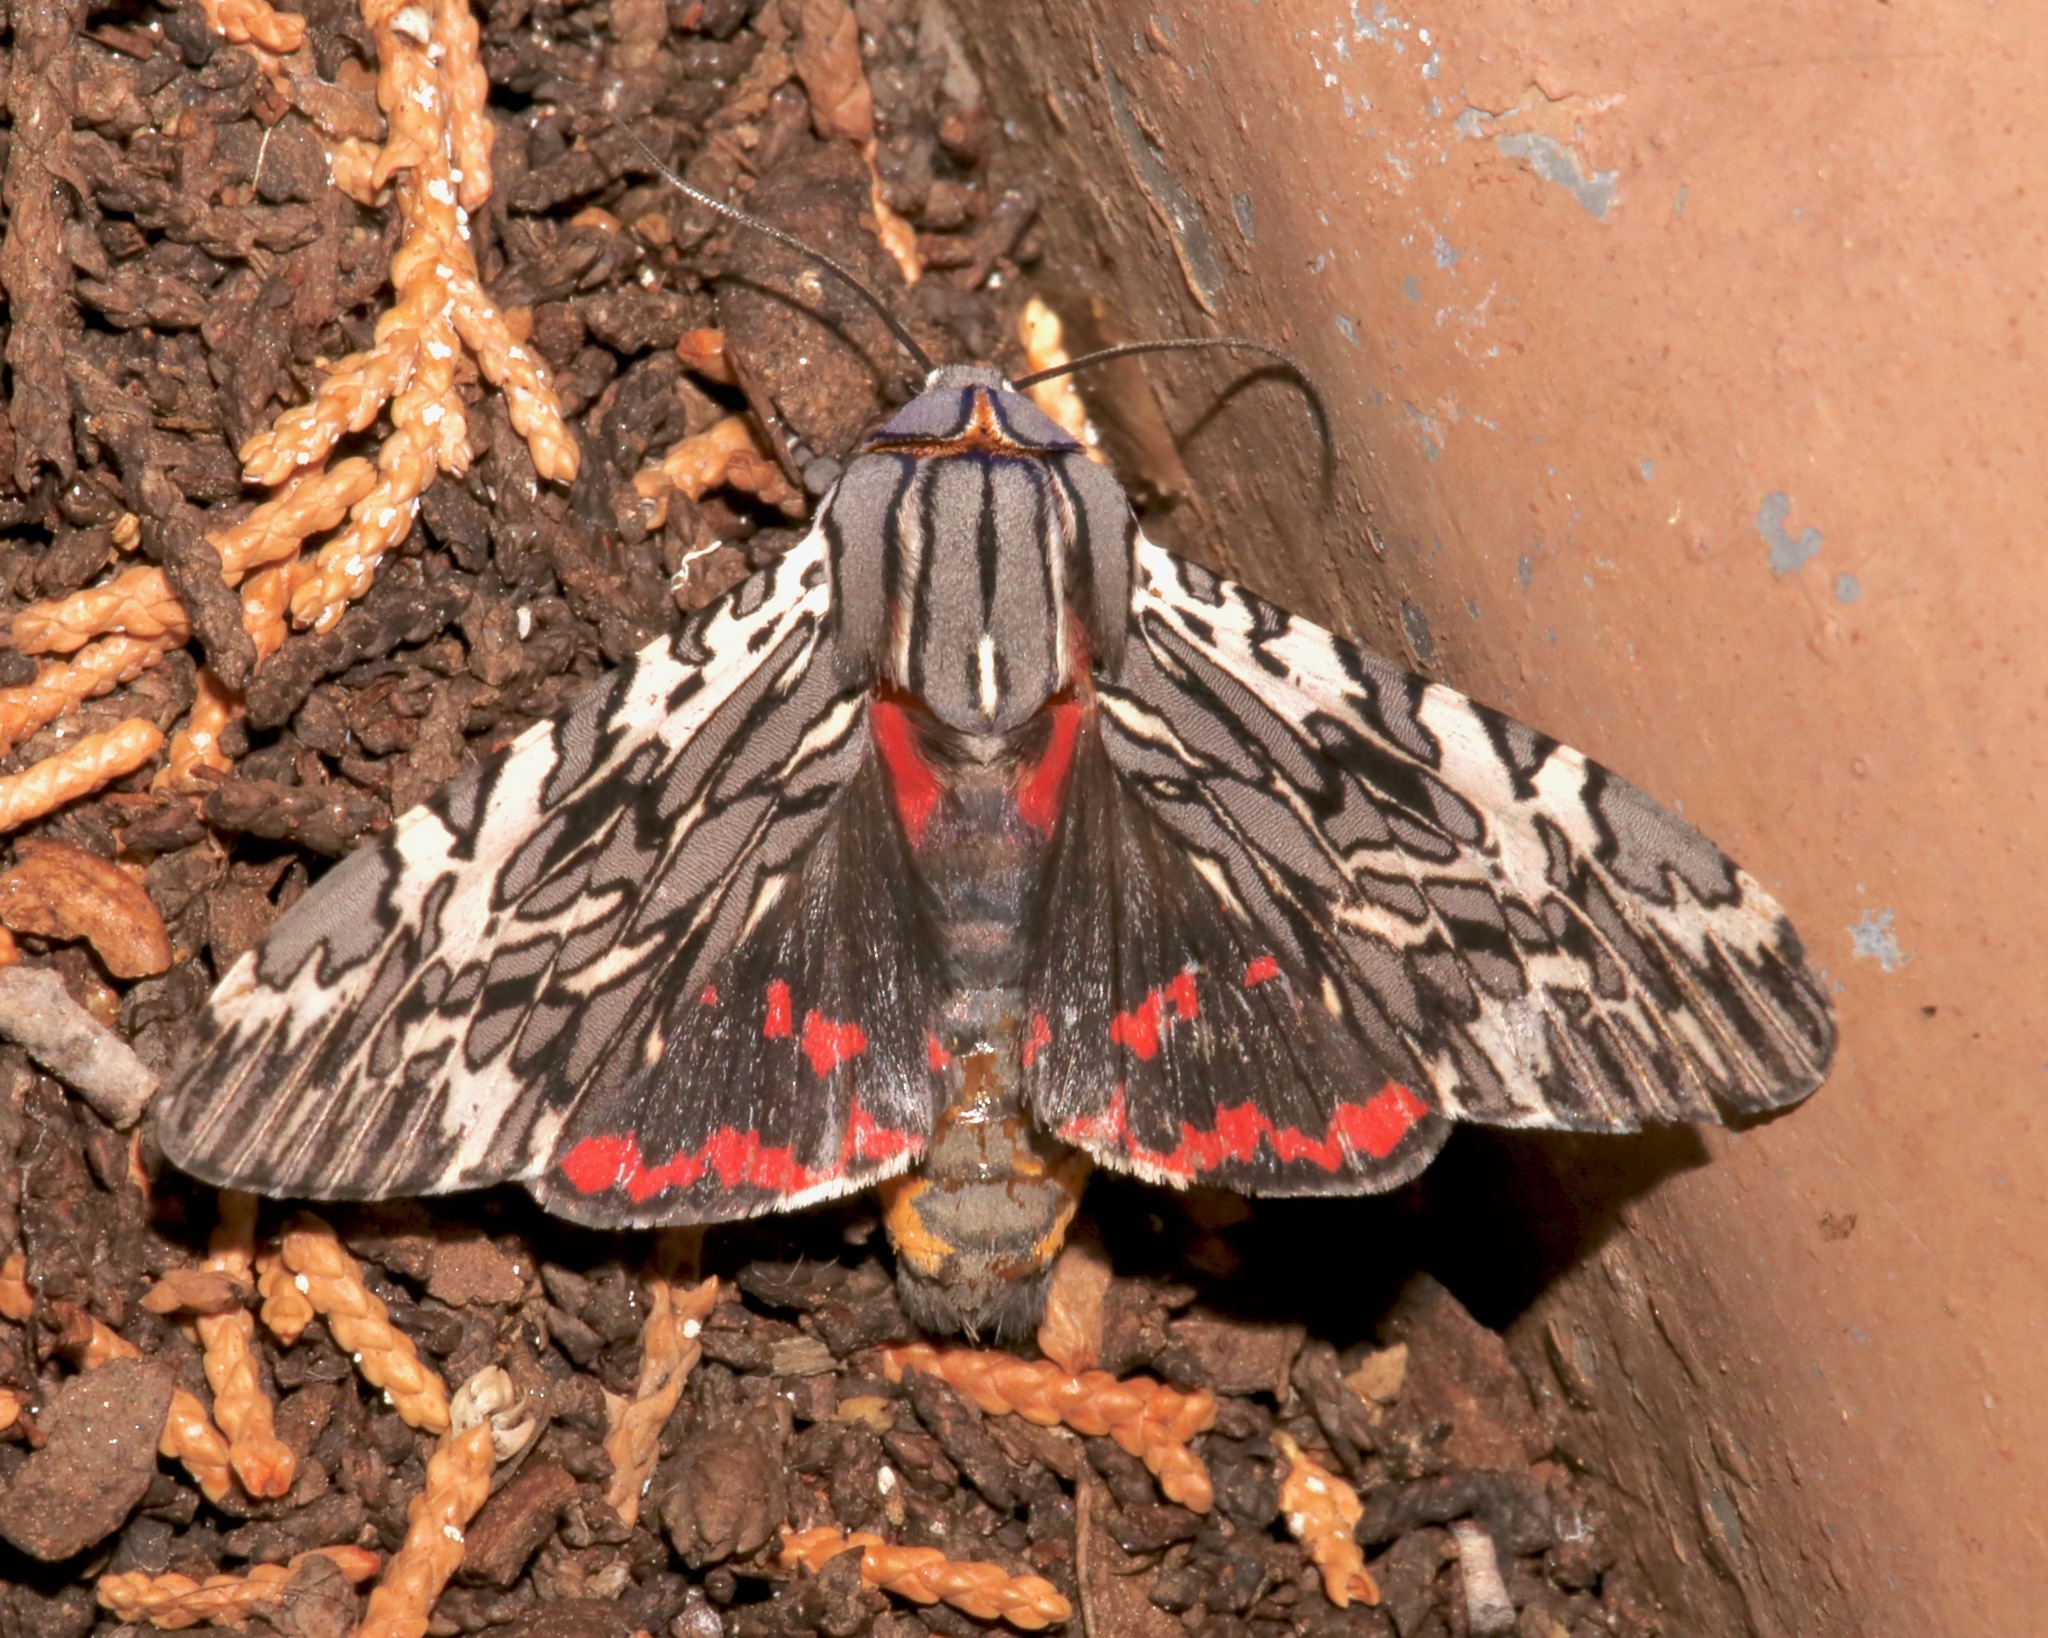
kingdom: Animalia
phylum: Arthropoda
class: Insecta
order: Lepidoptera
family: Erebidae
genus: Arachnis
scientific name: Arachnis aulaea
